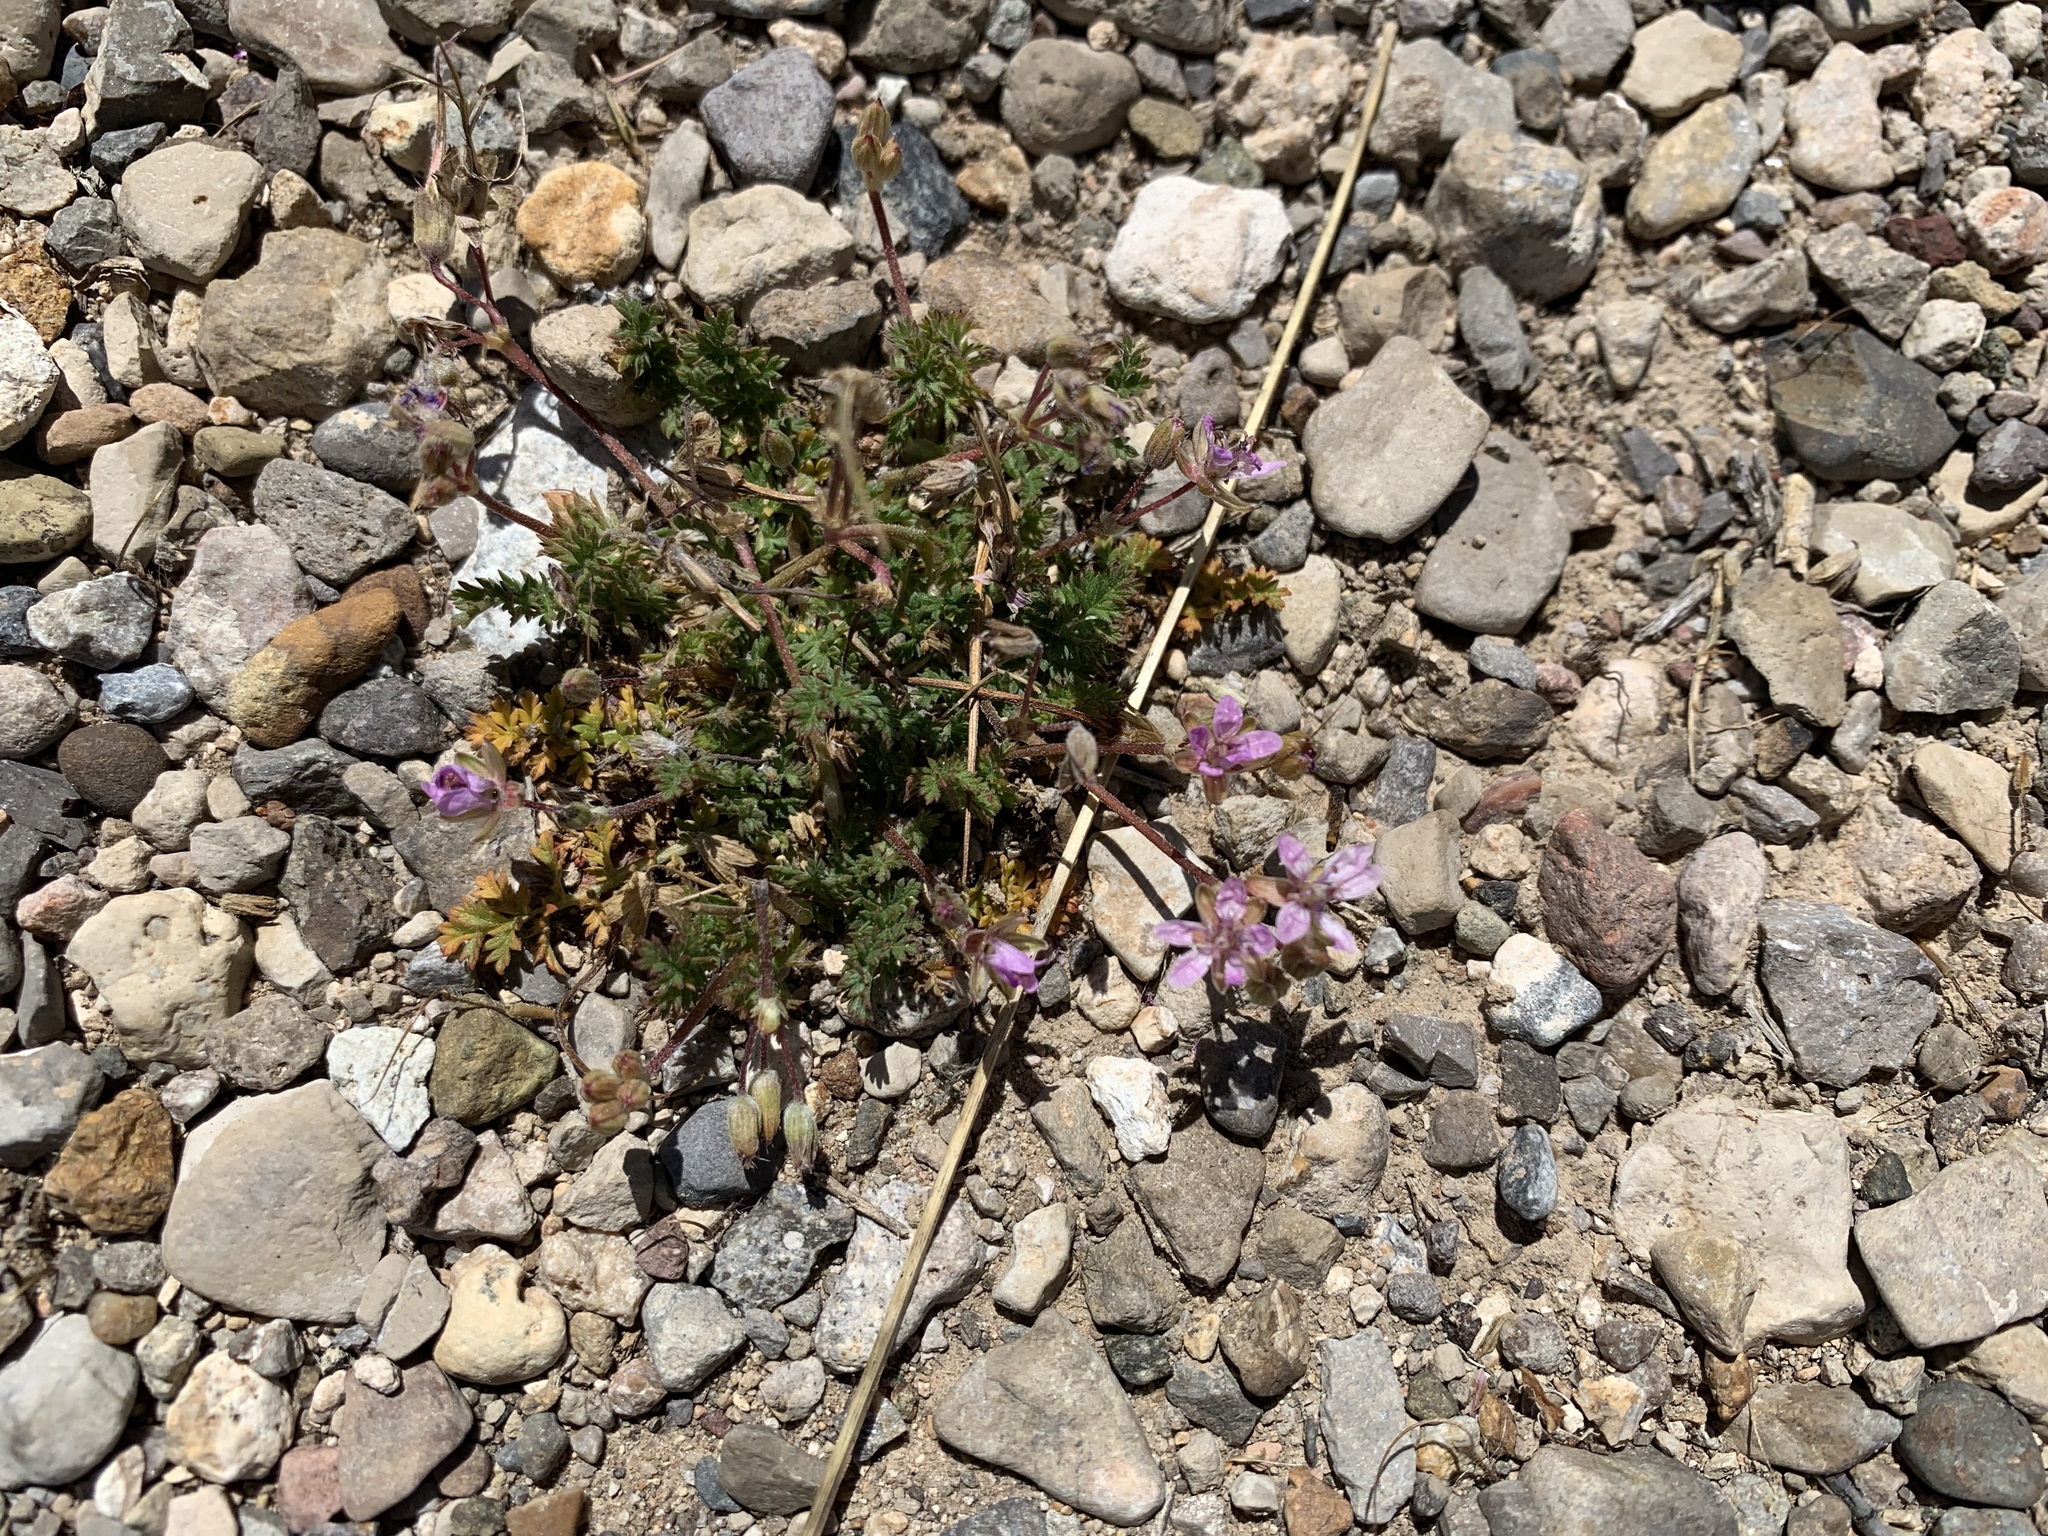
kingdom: Plantae
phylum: Tracheophyta
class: Magnoliopsida
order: Geraniales
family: Geraniaceae
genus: Erodium
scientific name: Erodium cicutarium
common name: Common stork's-bill
